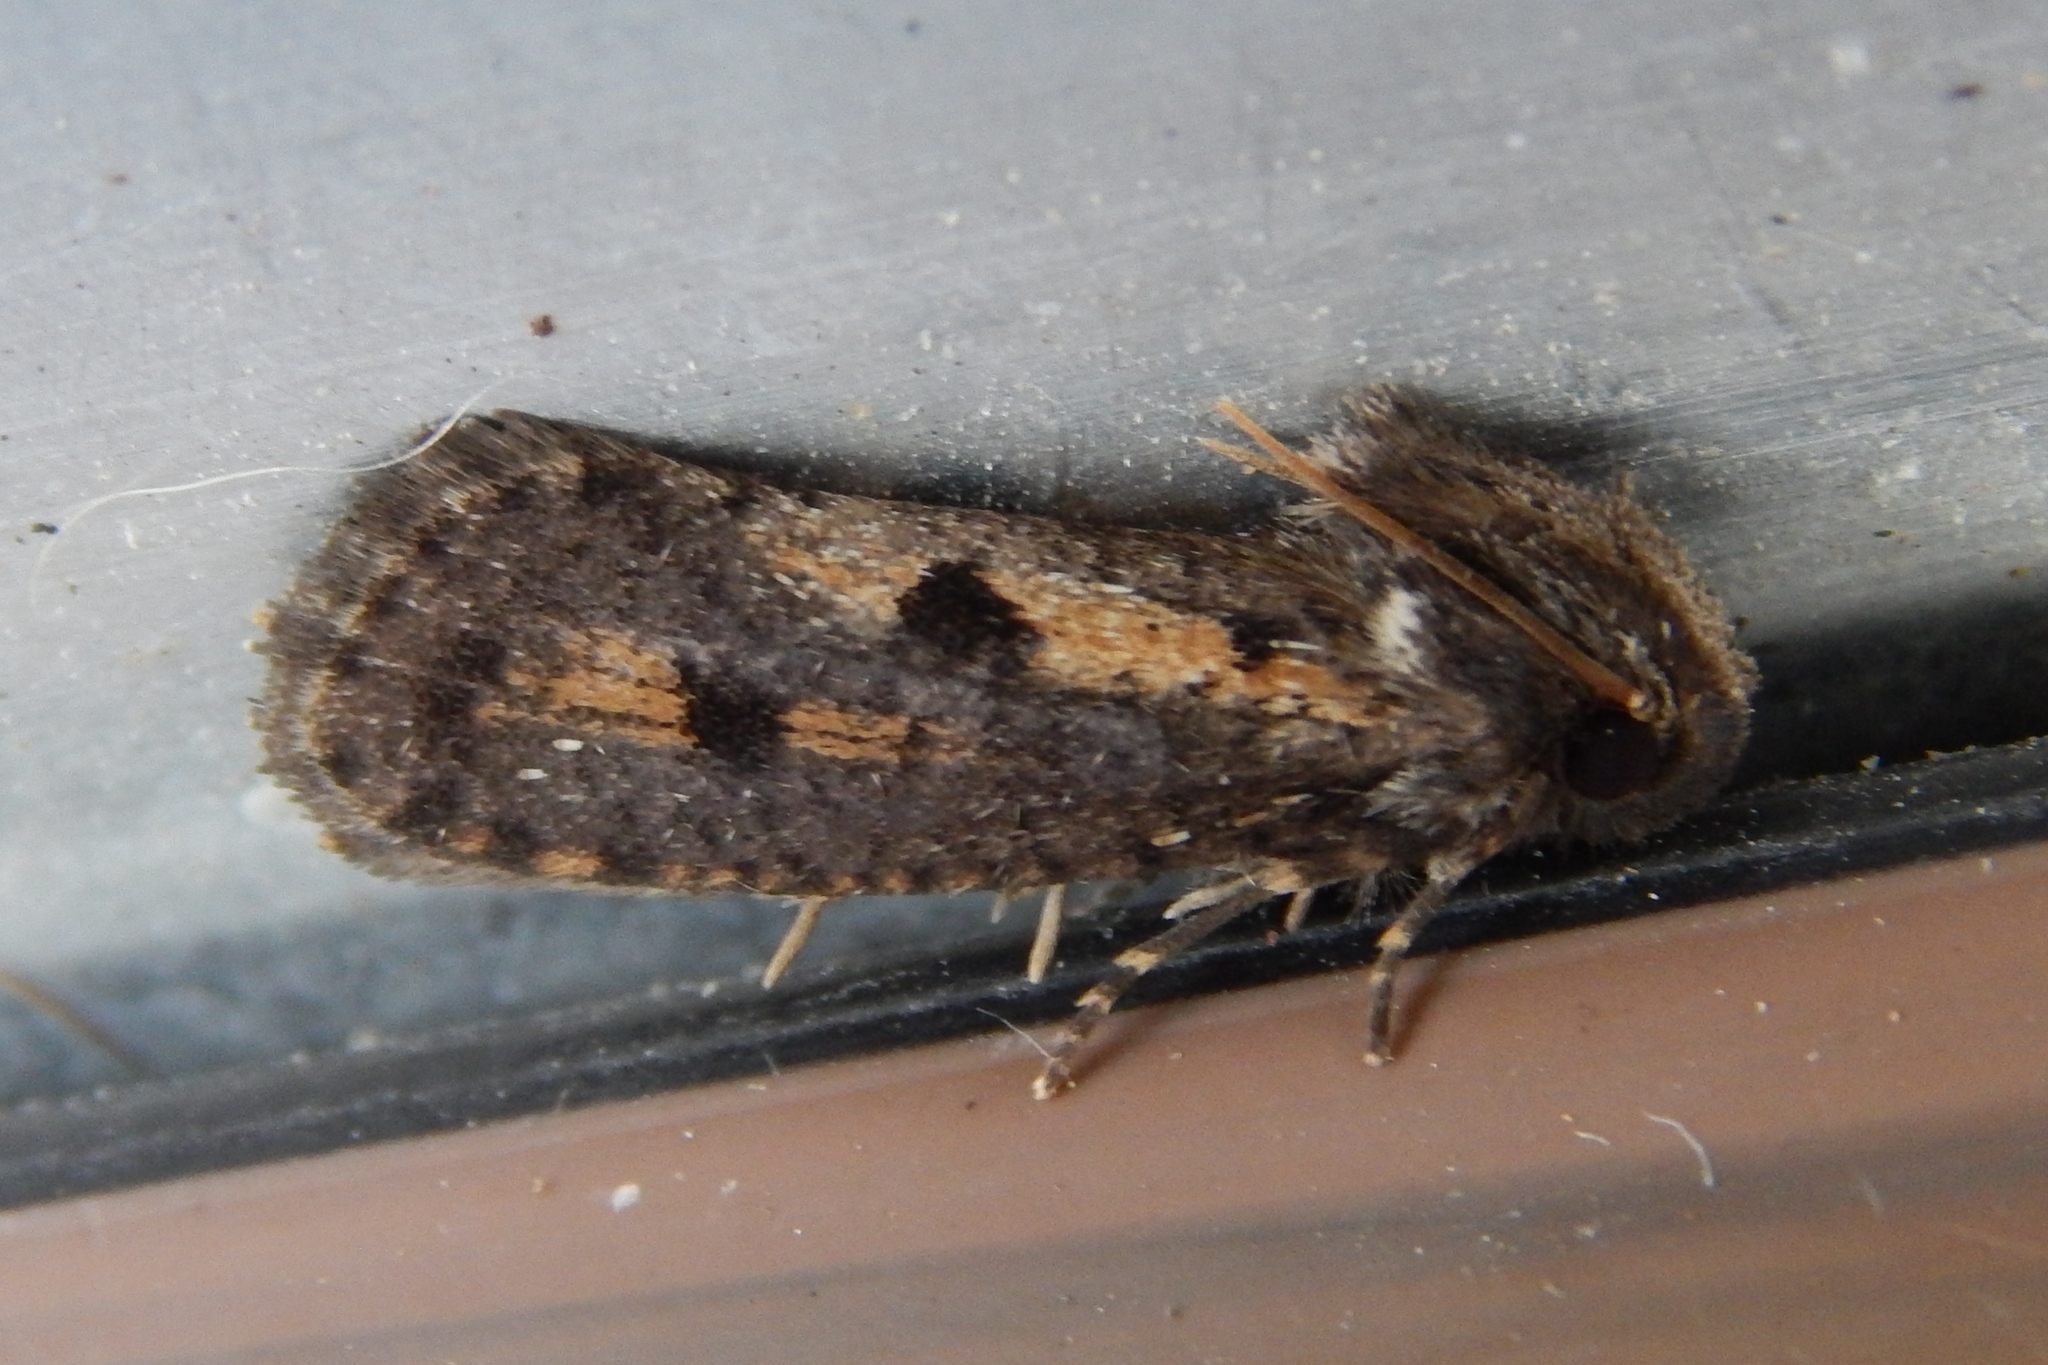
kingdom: Animalia
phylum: Arthropoda
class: Insecta
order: Lepidoptera
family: Tineidae
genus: Acrolophus
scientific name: Acrolophus popeanella
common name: Clemens' grass tubeworm moth
